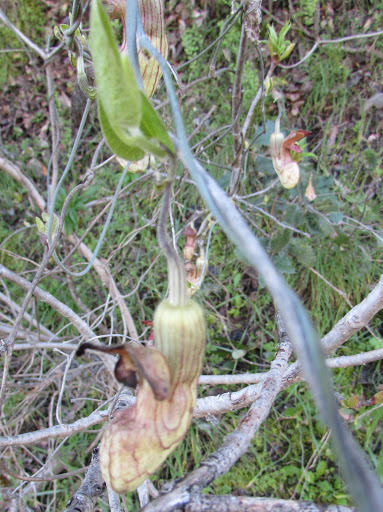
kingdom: Plantae
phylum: Tracheophyta
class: Magnoliopsida
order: Piperales
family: Aristolochiaceae
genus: Isotrema
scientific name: Isotrema californicum
